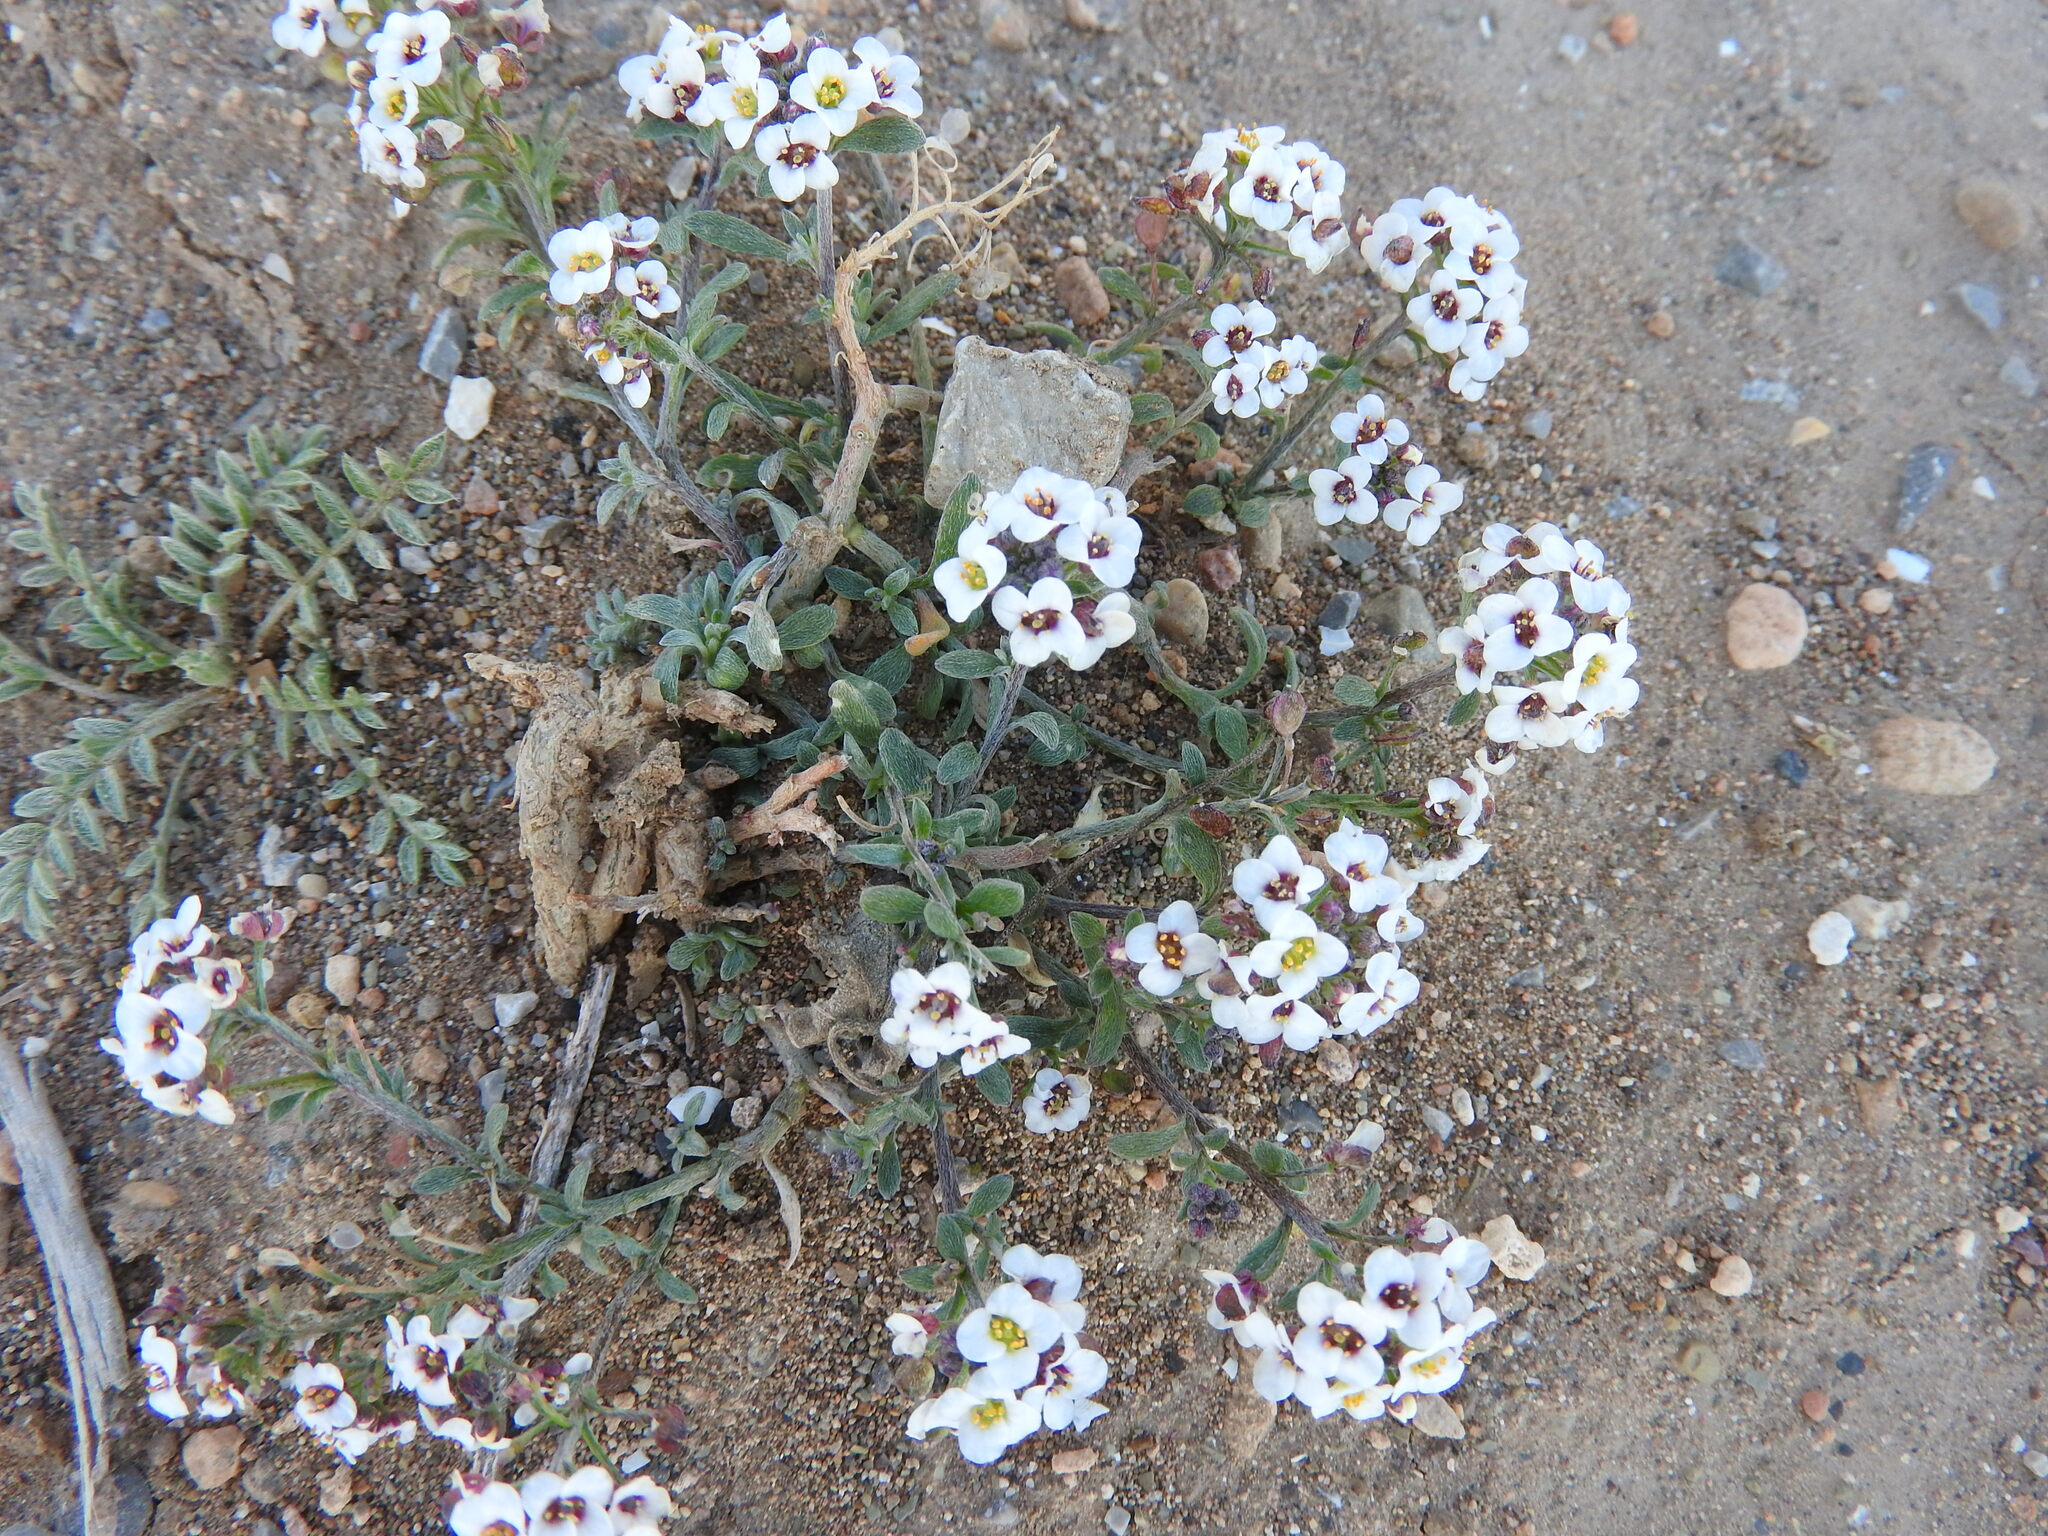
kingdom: Plantae
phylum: Tracheophyta
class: Magnoliopsida
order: Brassicales
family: Brassicaceae
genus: Lobularia
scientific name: Lobularia maritima
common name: Sweet alison
